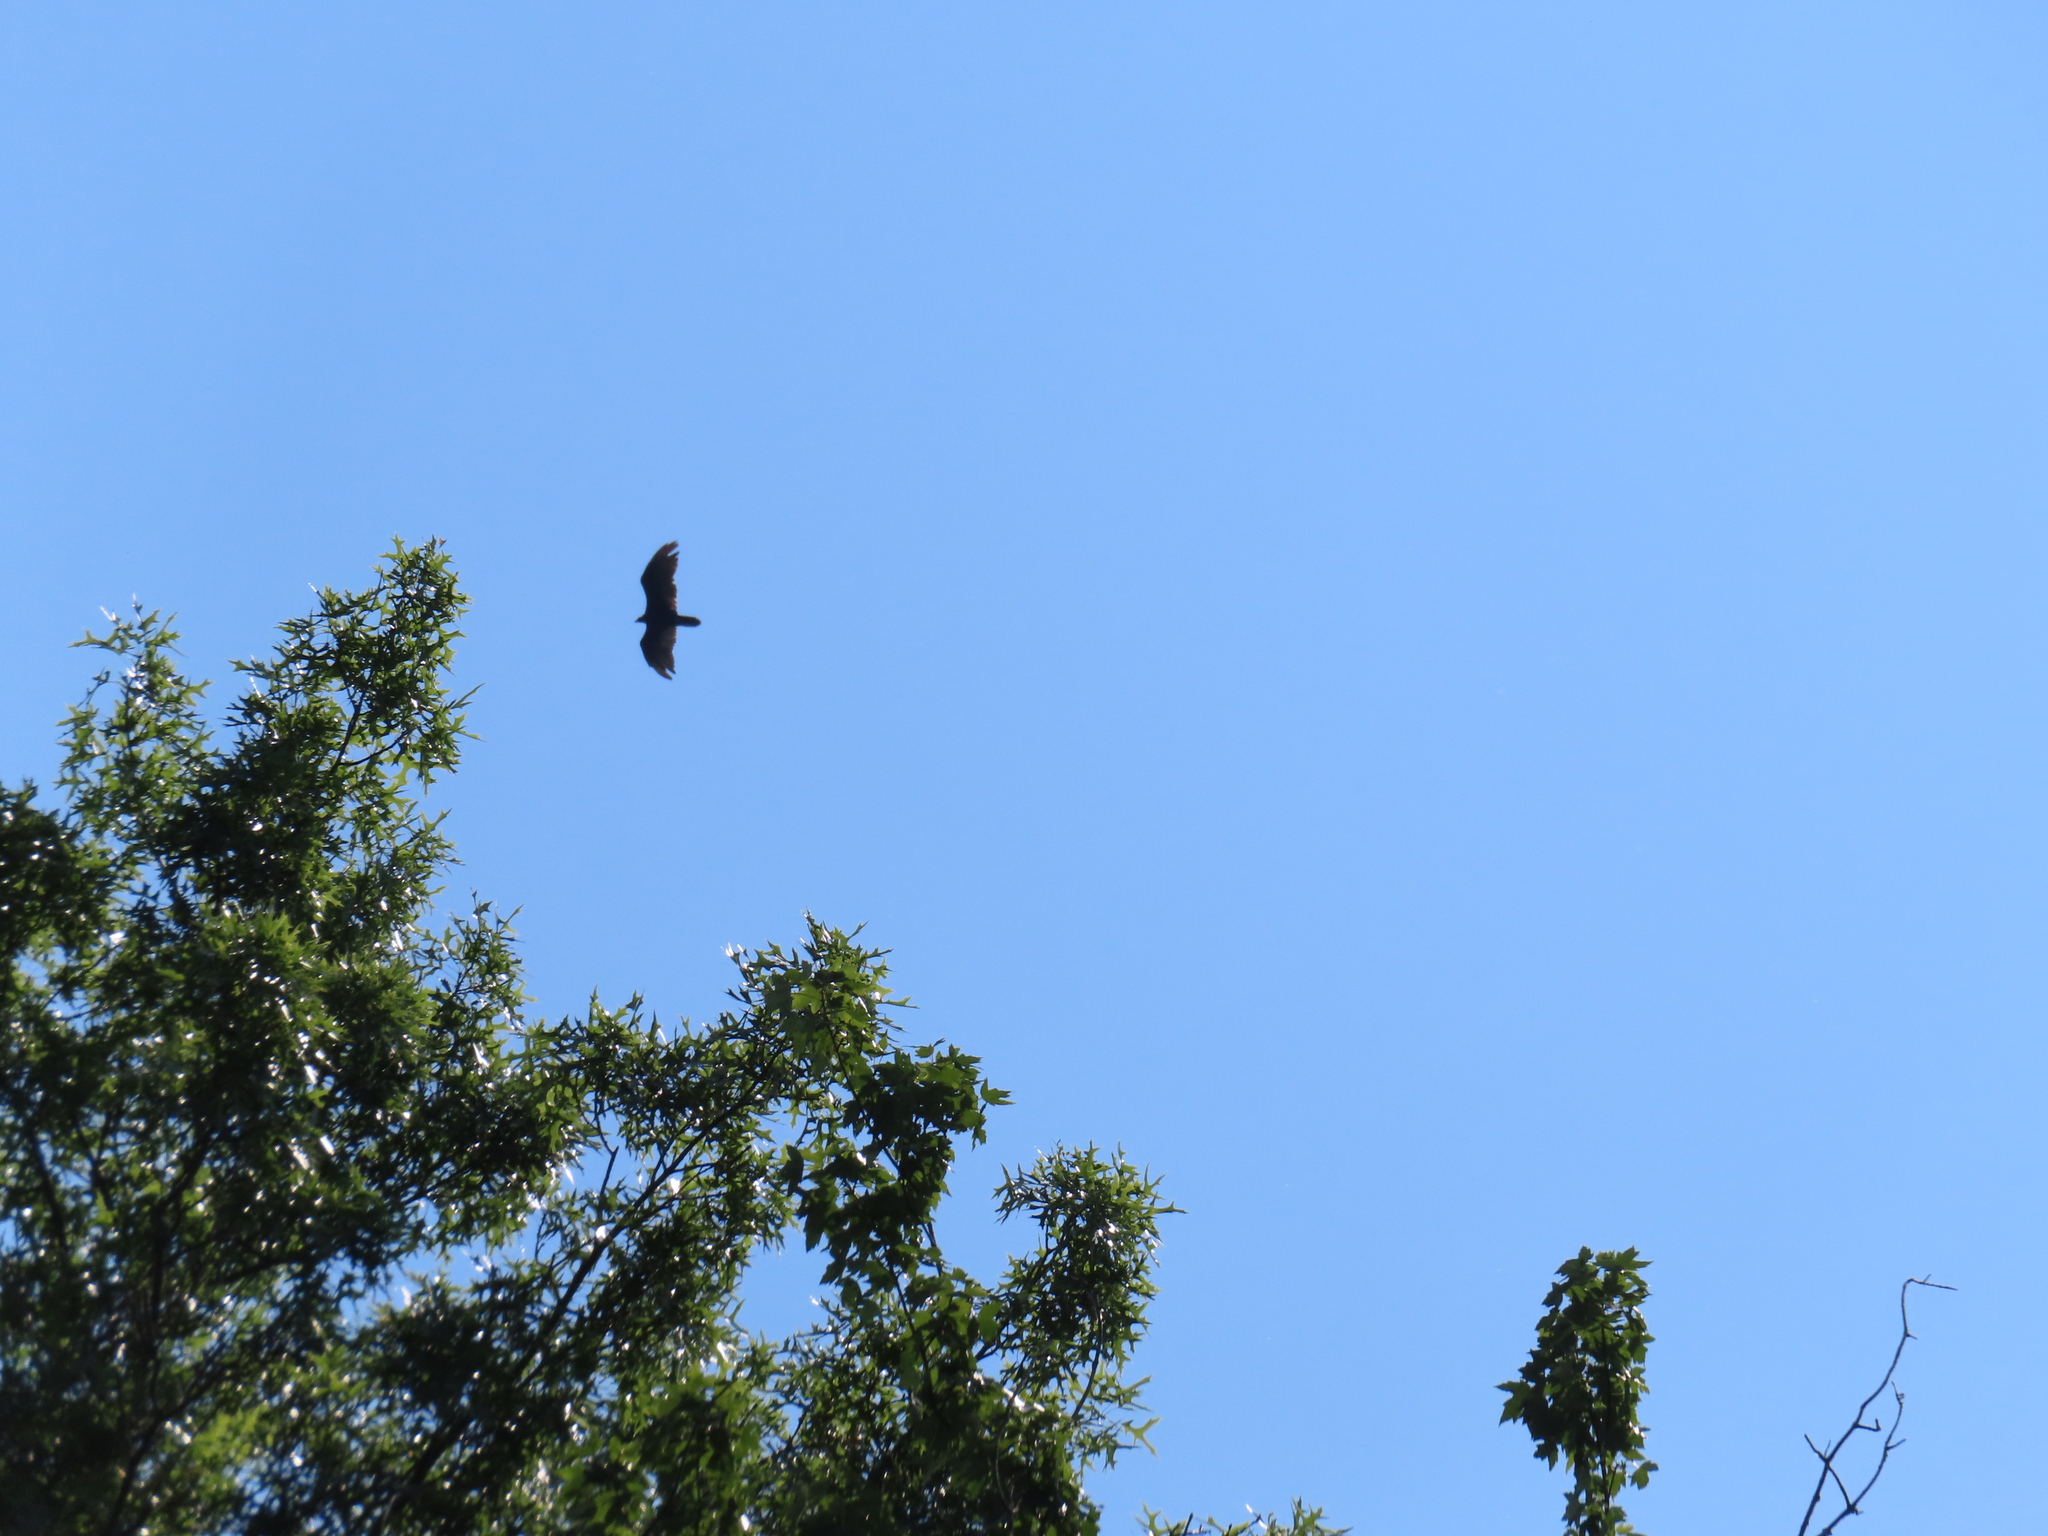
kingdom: Animalia
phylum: Chordata
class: Aves
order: Accipitriformes
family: Cathartidae
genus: Cathartes
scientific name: Cathartes aura
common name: Turkey vulture
